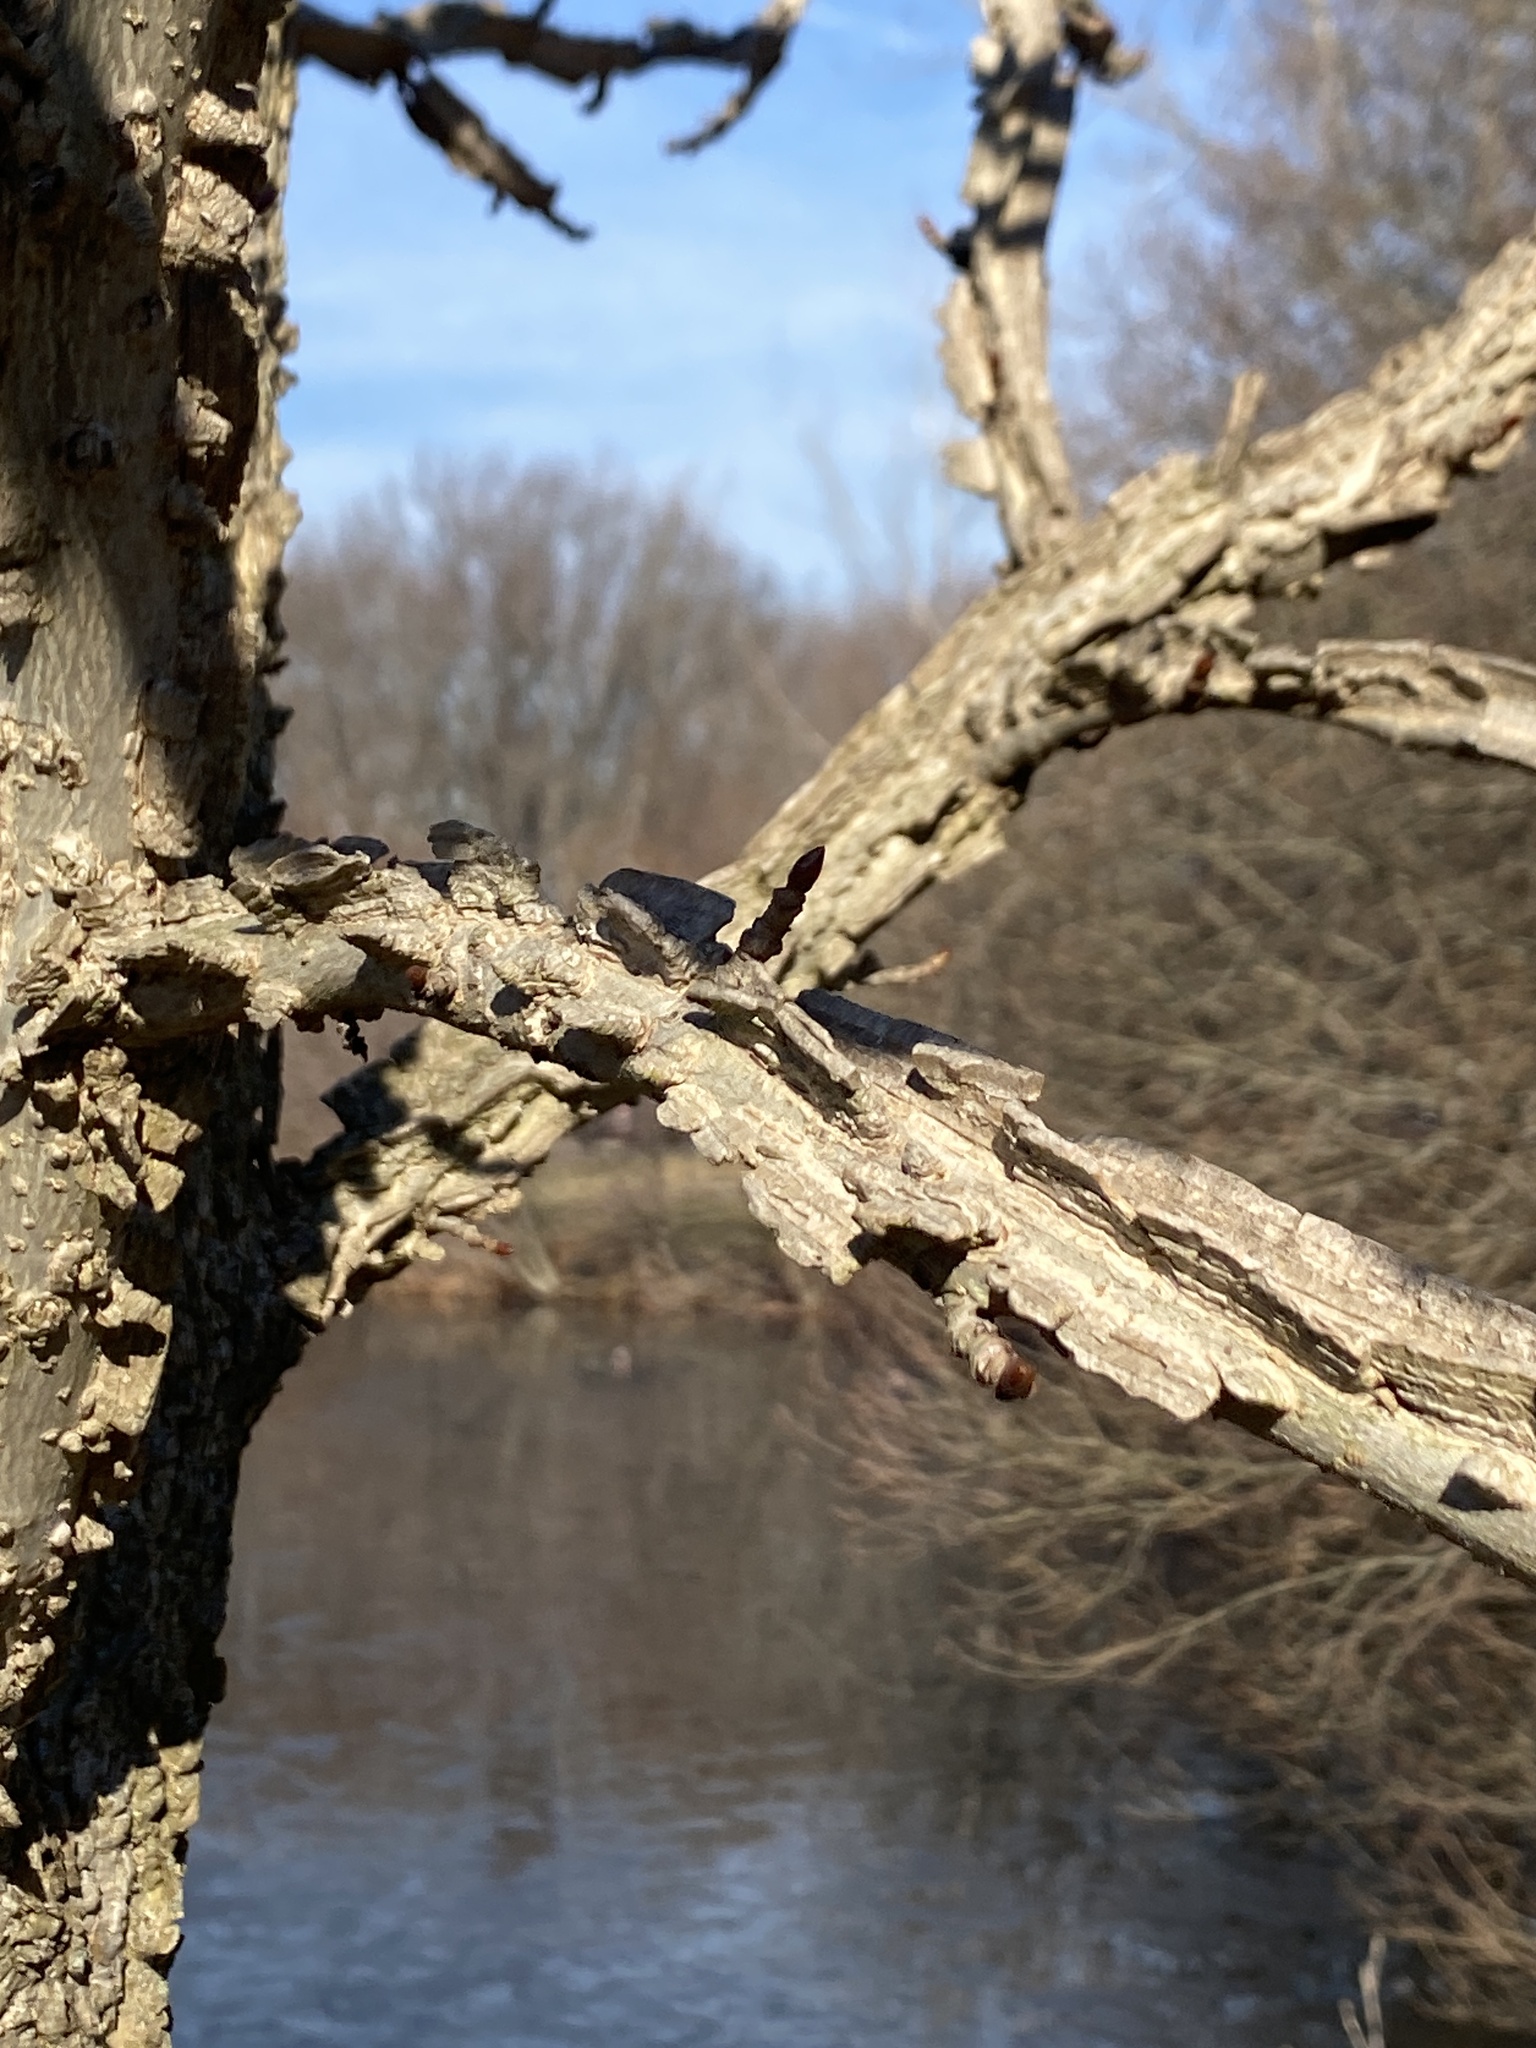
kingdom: Plantae
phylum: Tracheophyta
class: Magnoliopsida
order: Saxifragales
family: Altingiaceae
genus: Liquidambar
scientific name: Liquidambar styraciflua
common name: Sweet gum
